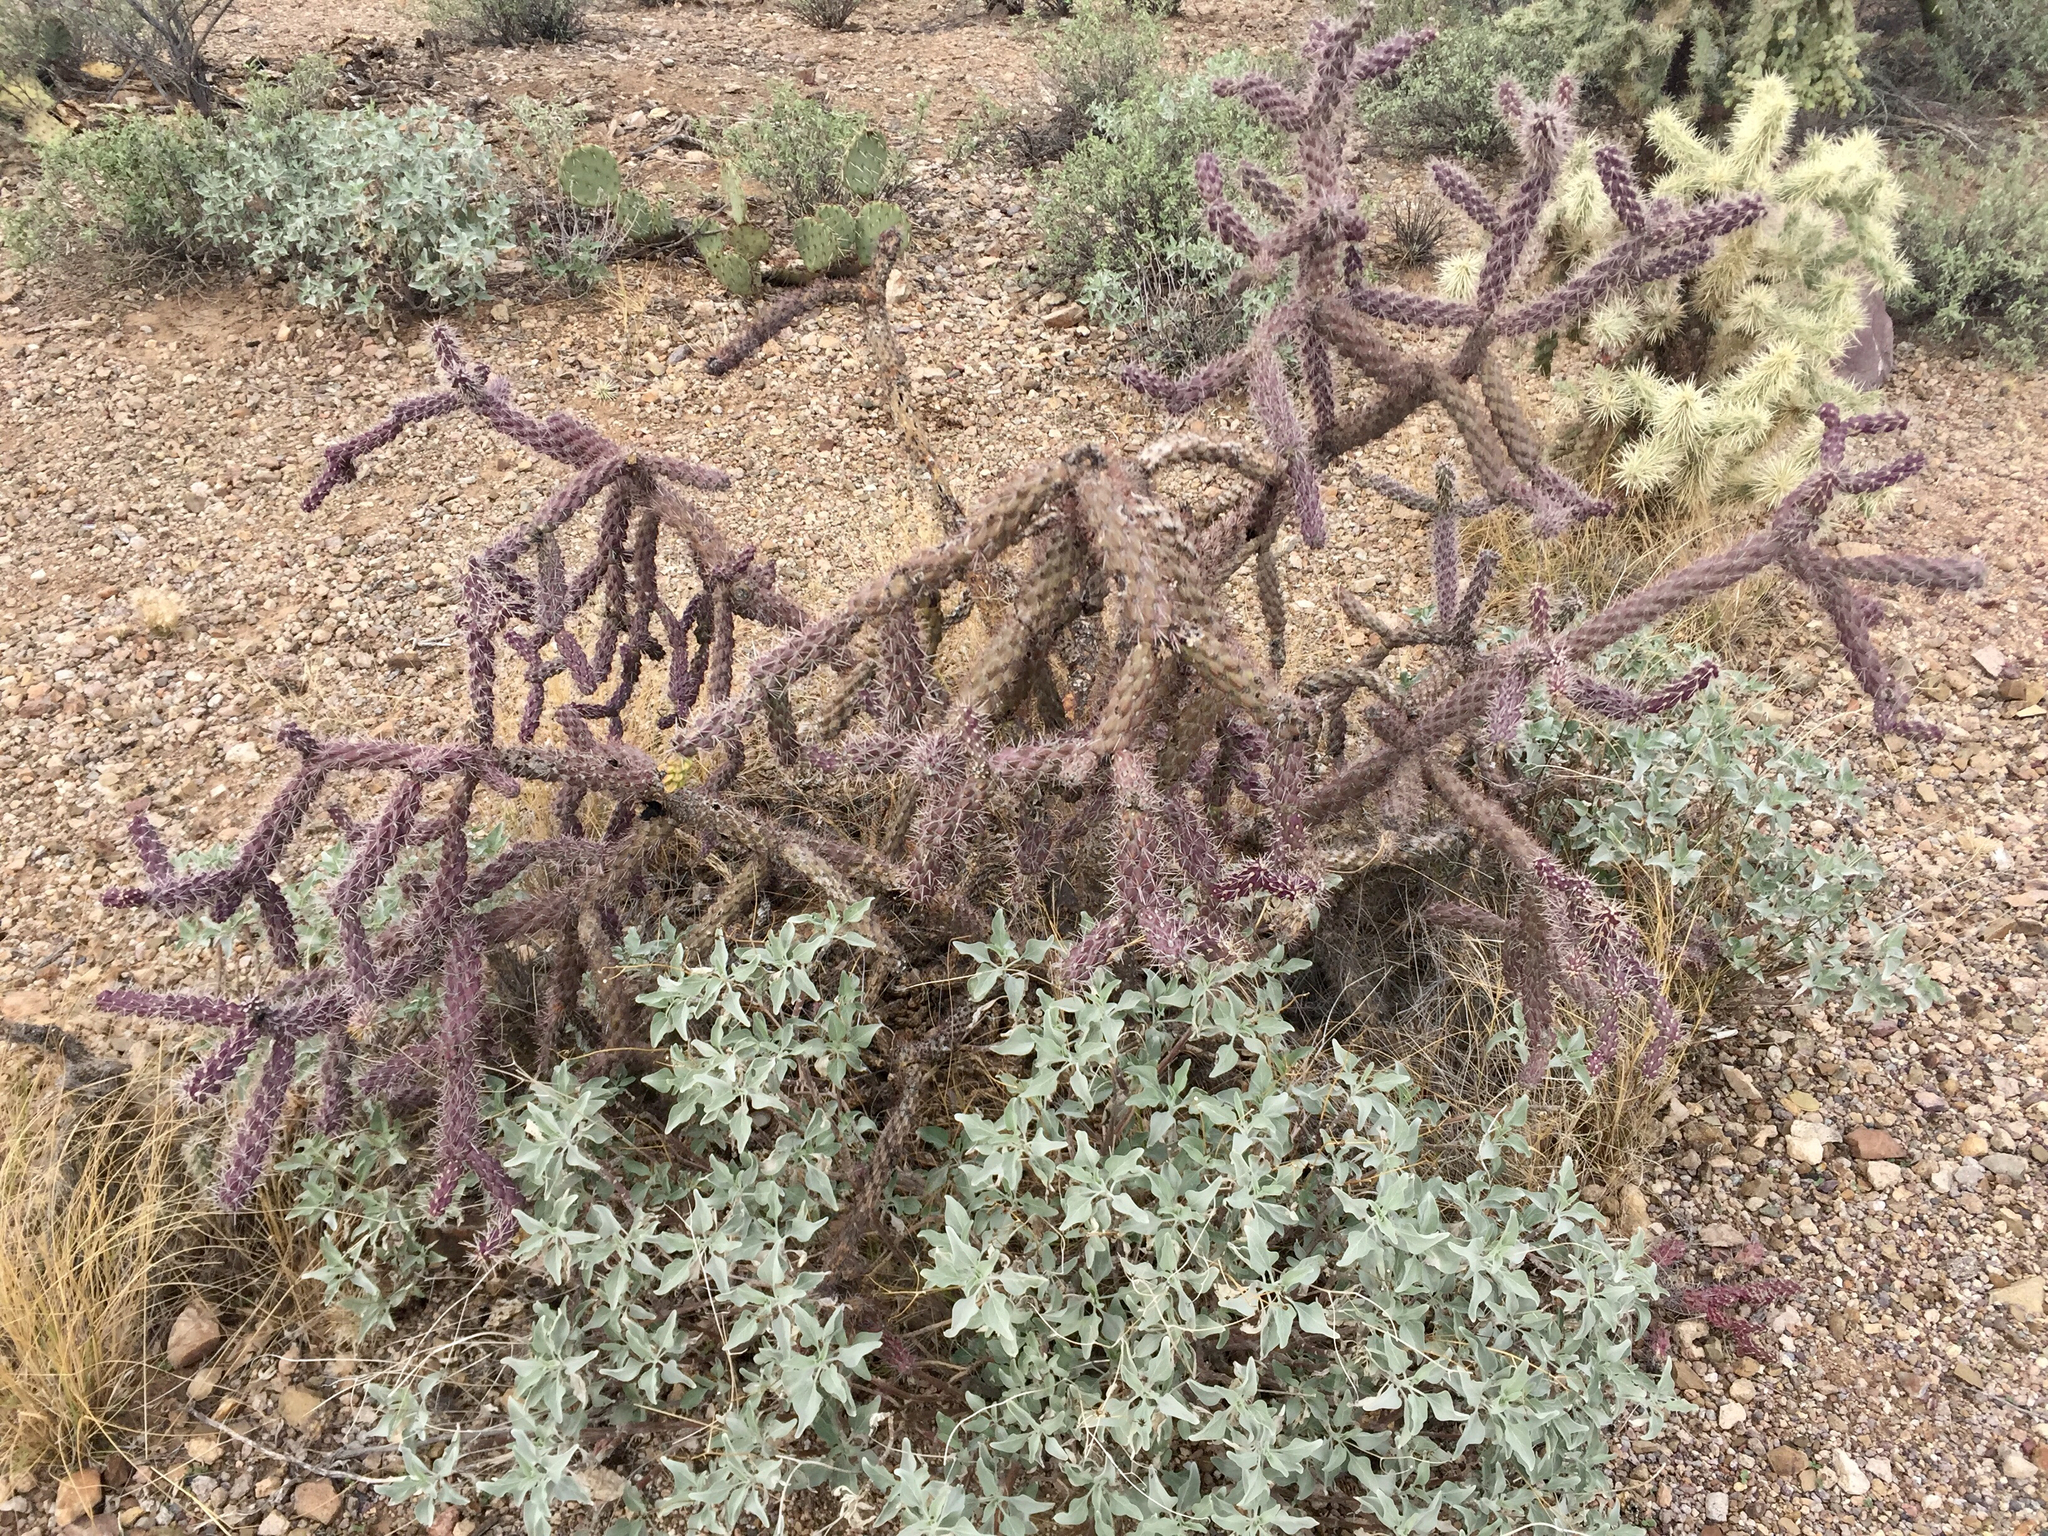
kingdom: Plantae
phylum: Tracheophyta
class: Magnoliopsida
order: Caryophyllales
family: Cactaceae
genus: Cylindropuntia
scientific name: Cylindropuntia thurberi
